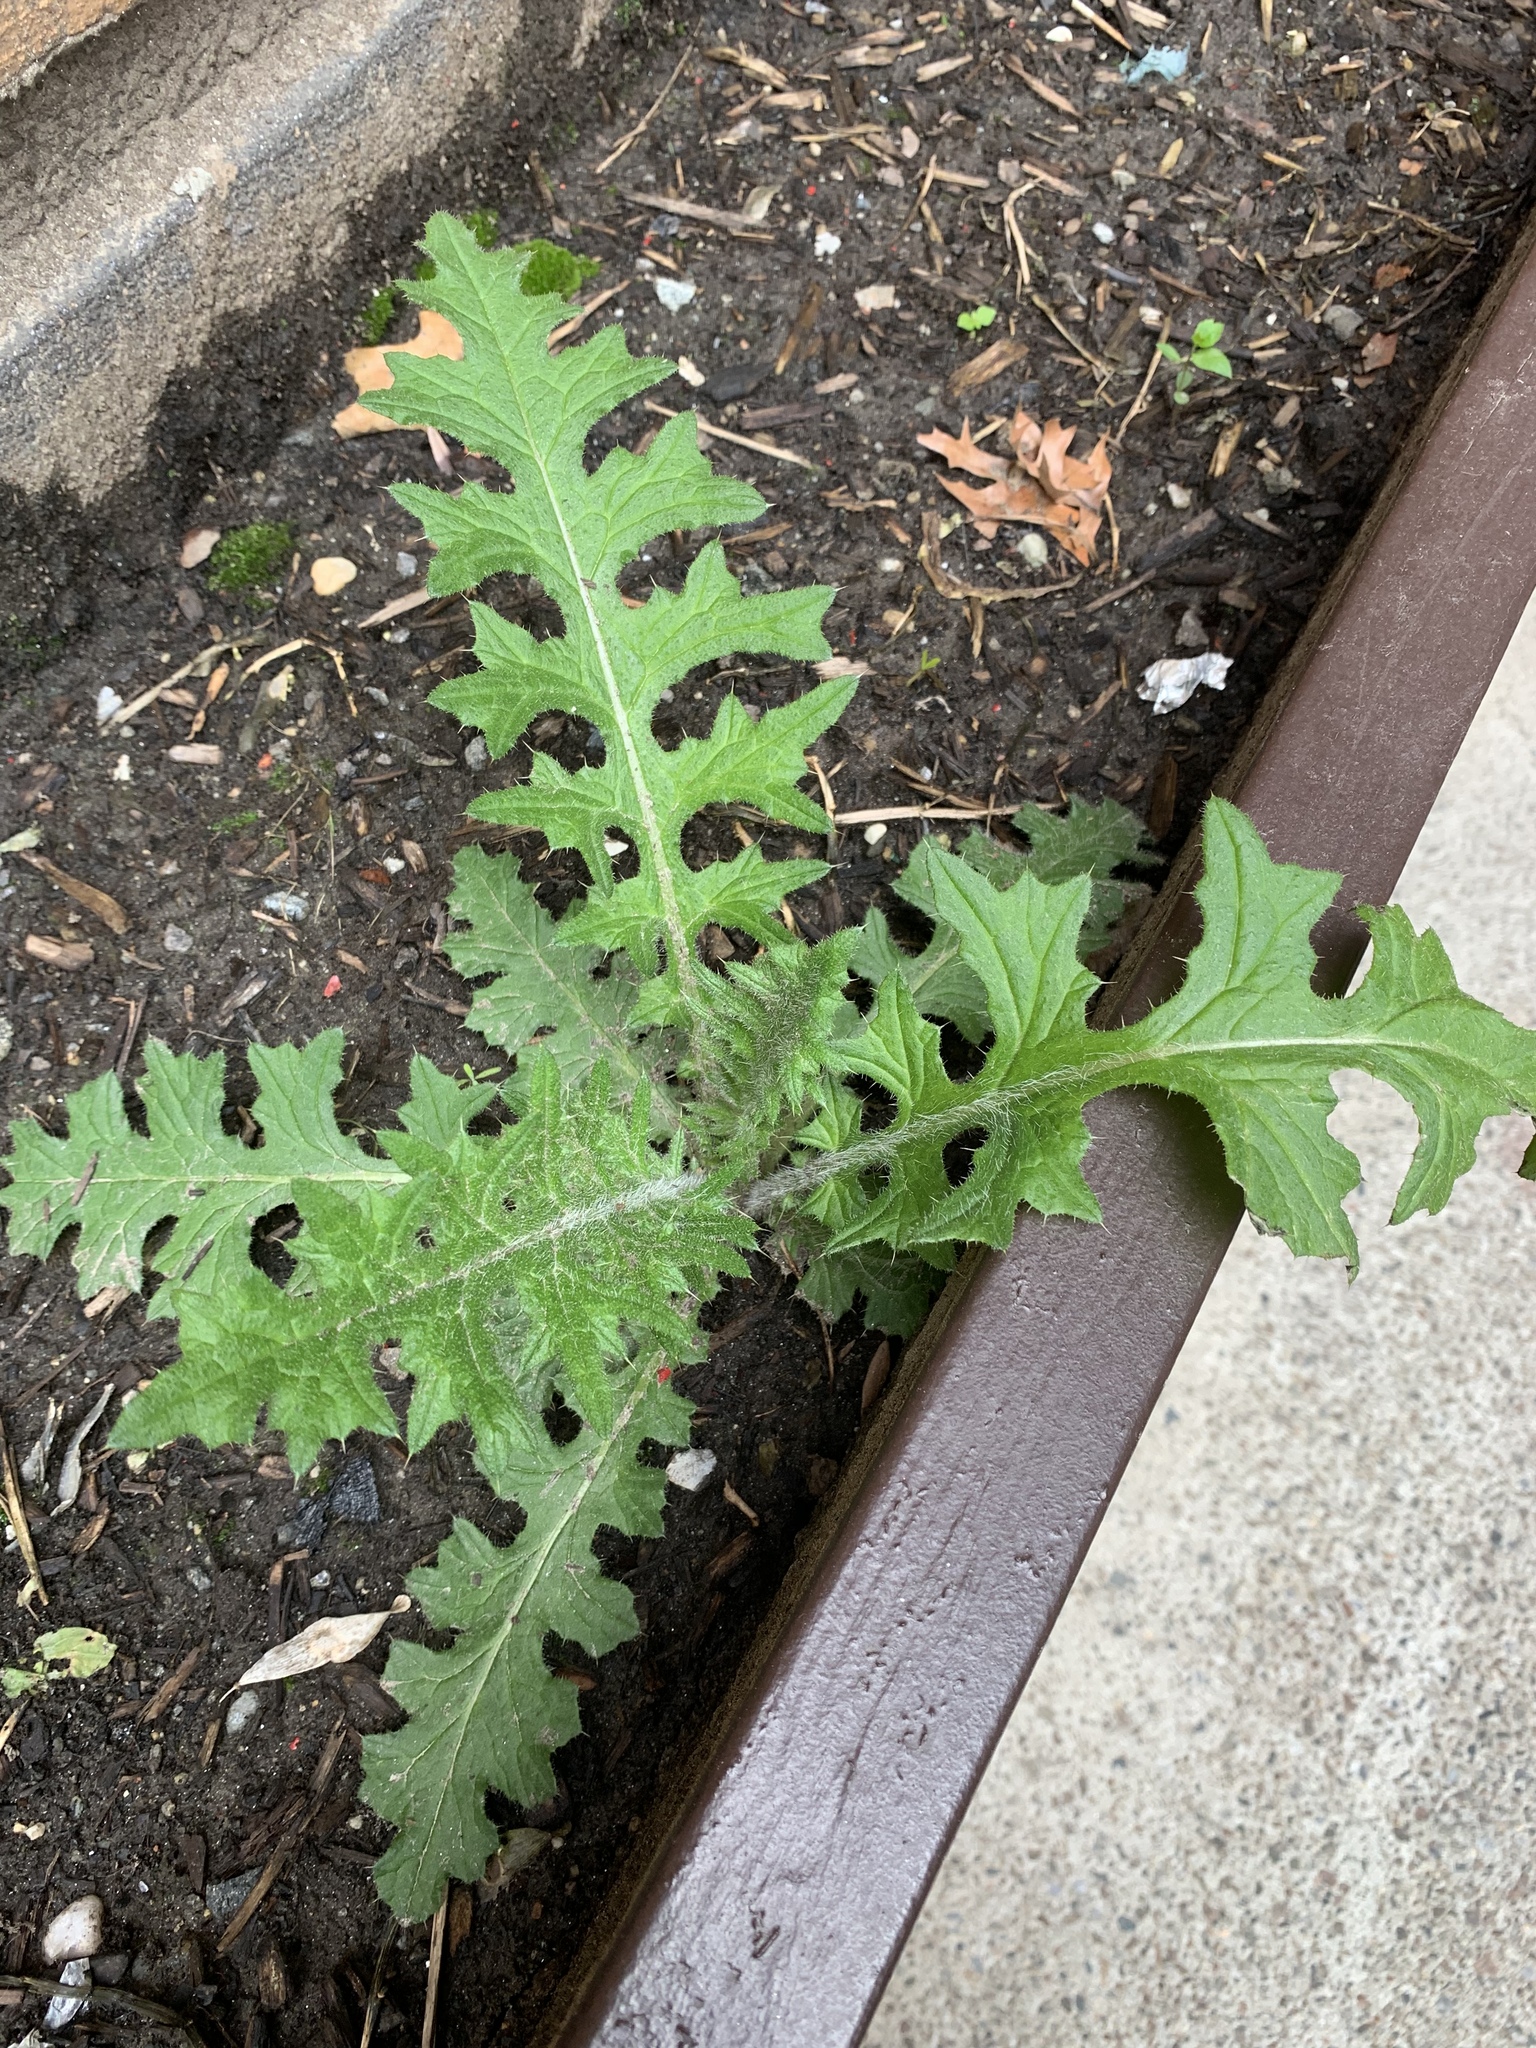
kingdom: Plantae
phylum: Tracheophyta
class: Magnoliopsida
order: Asterales
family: Asteraceae
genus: Cirsium
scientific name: Cirsium vulgare
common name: Bull thistle
